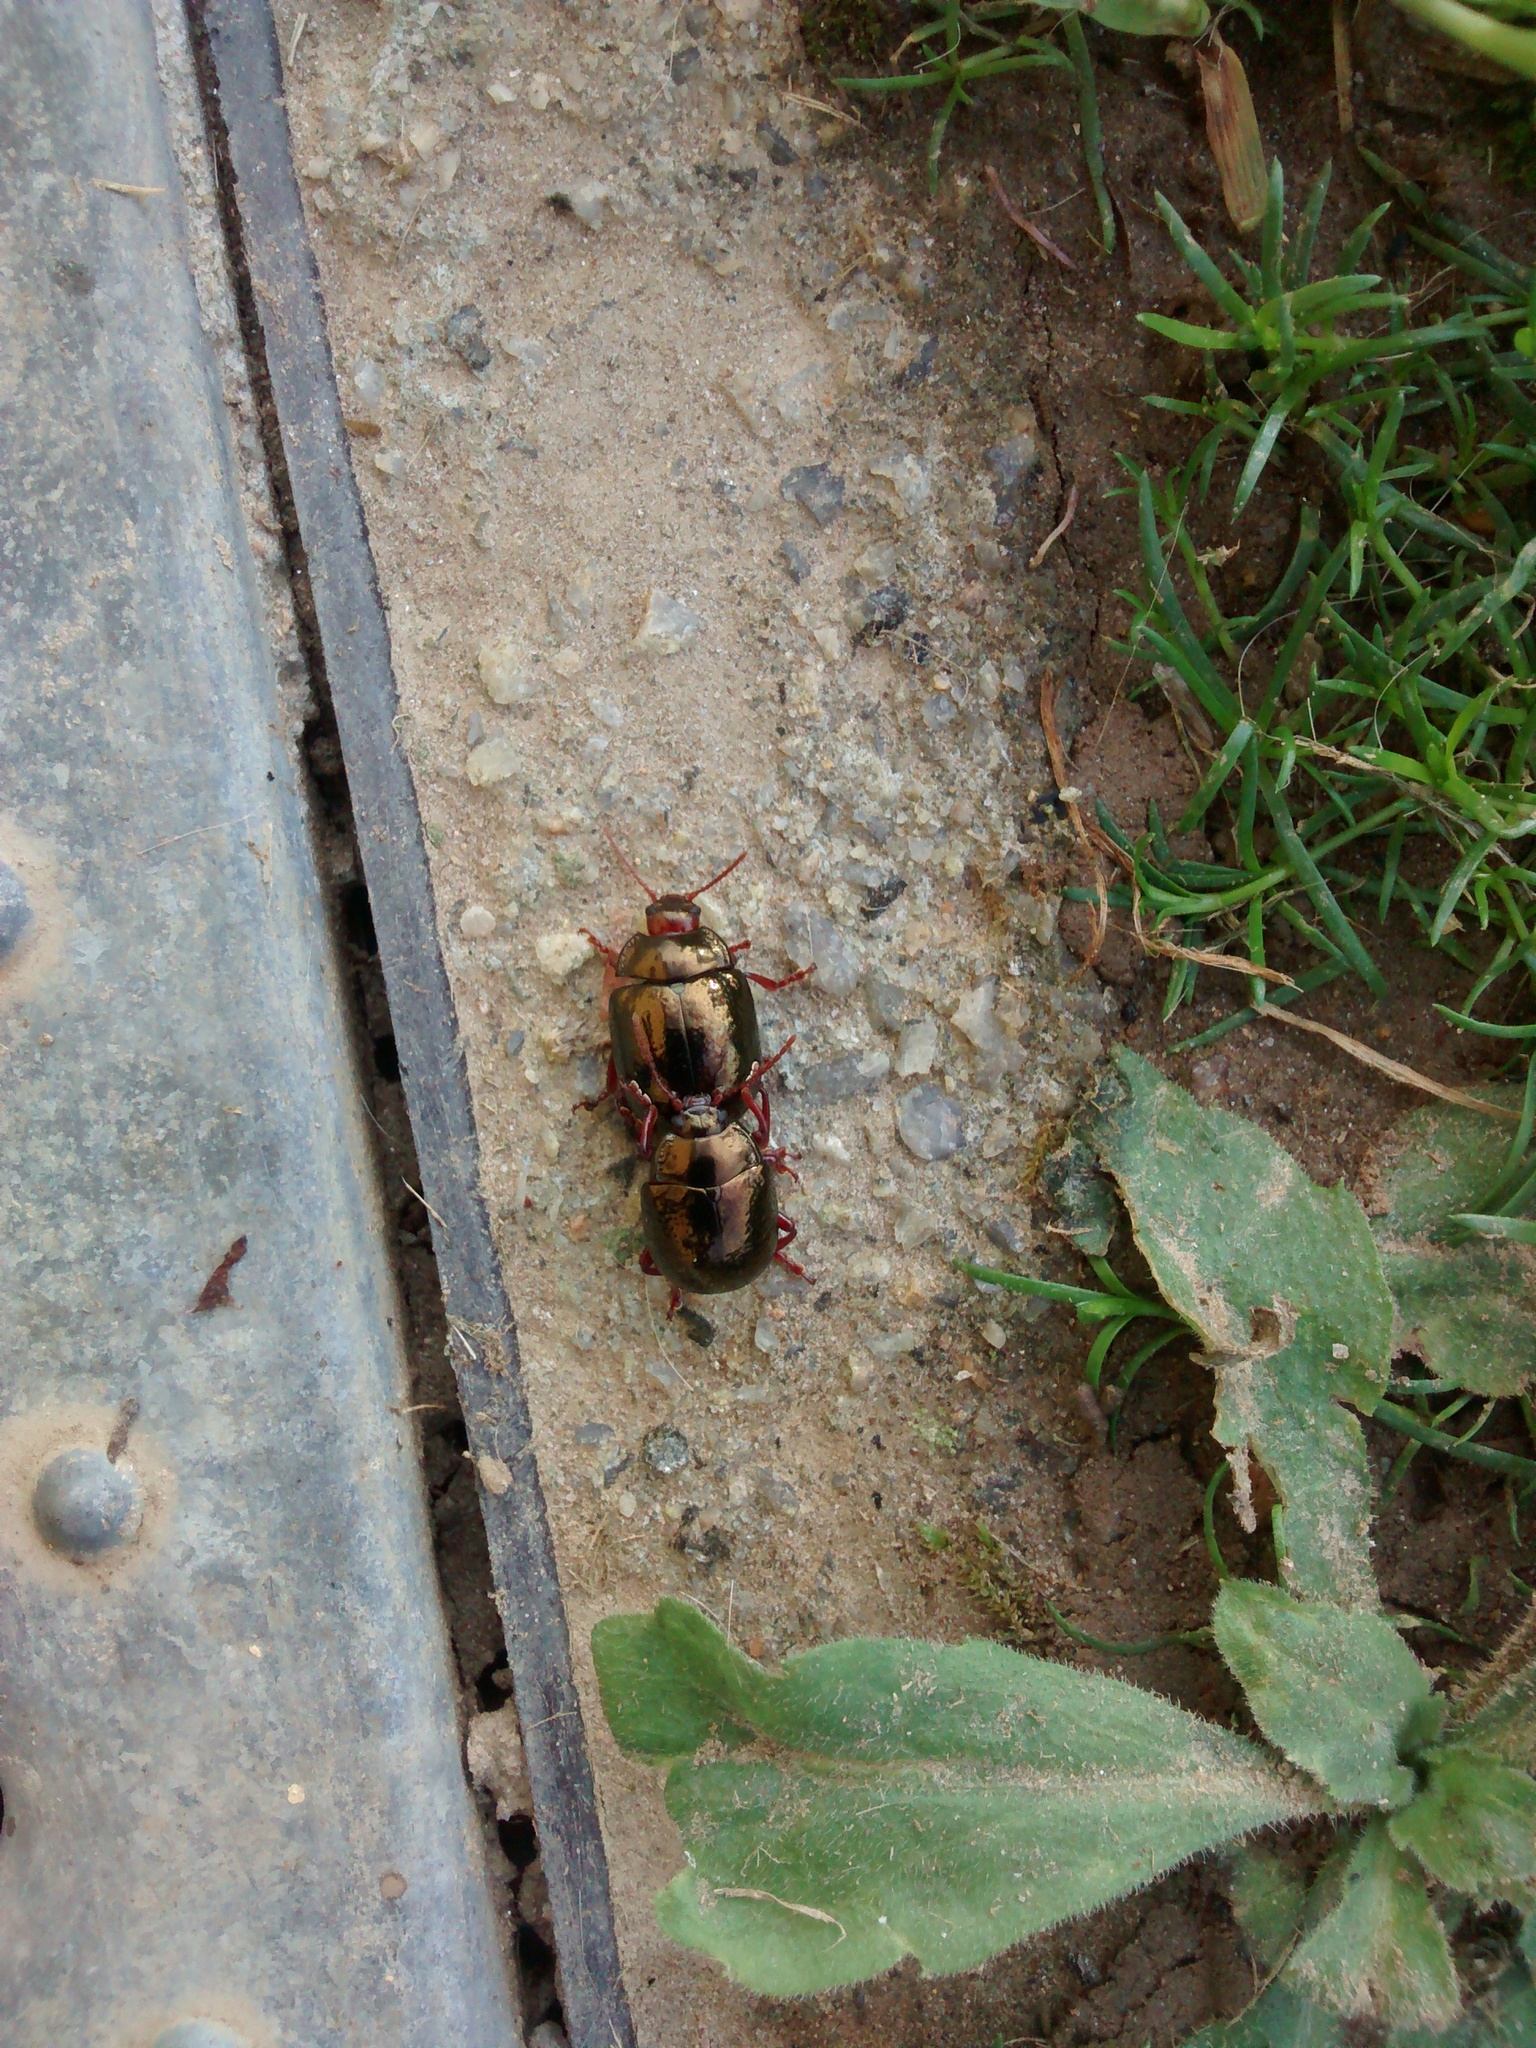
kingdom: Animalia
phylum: Arthropoda
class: Insecta
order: Coleoptera
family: Chrysomelidae
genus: Chrysolina
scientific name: Chrysolina bankii
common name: Leaf beetle
